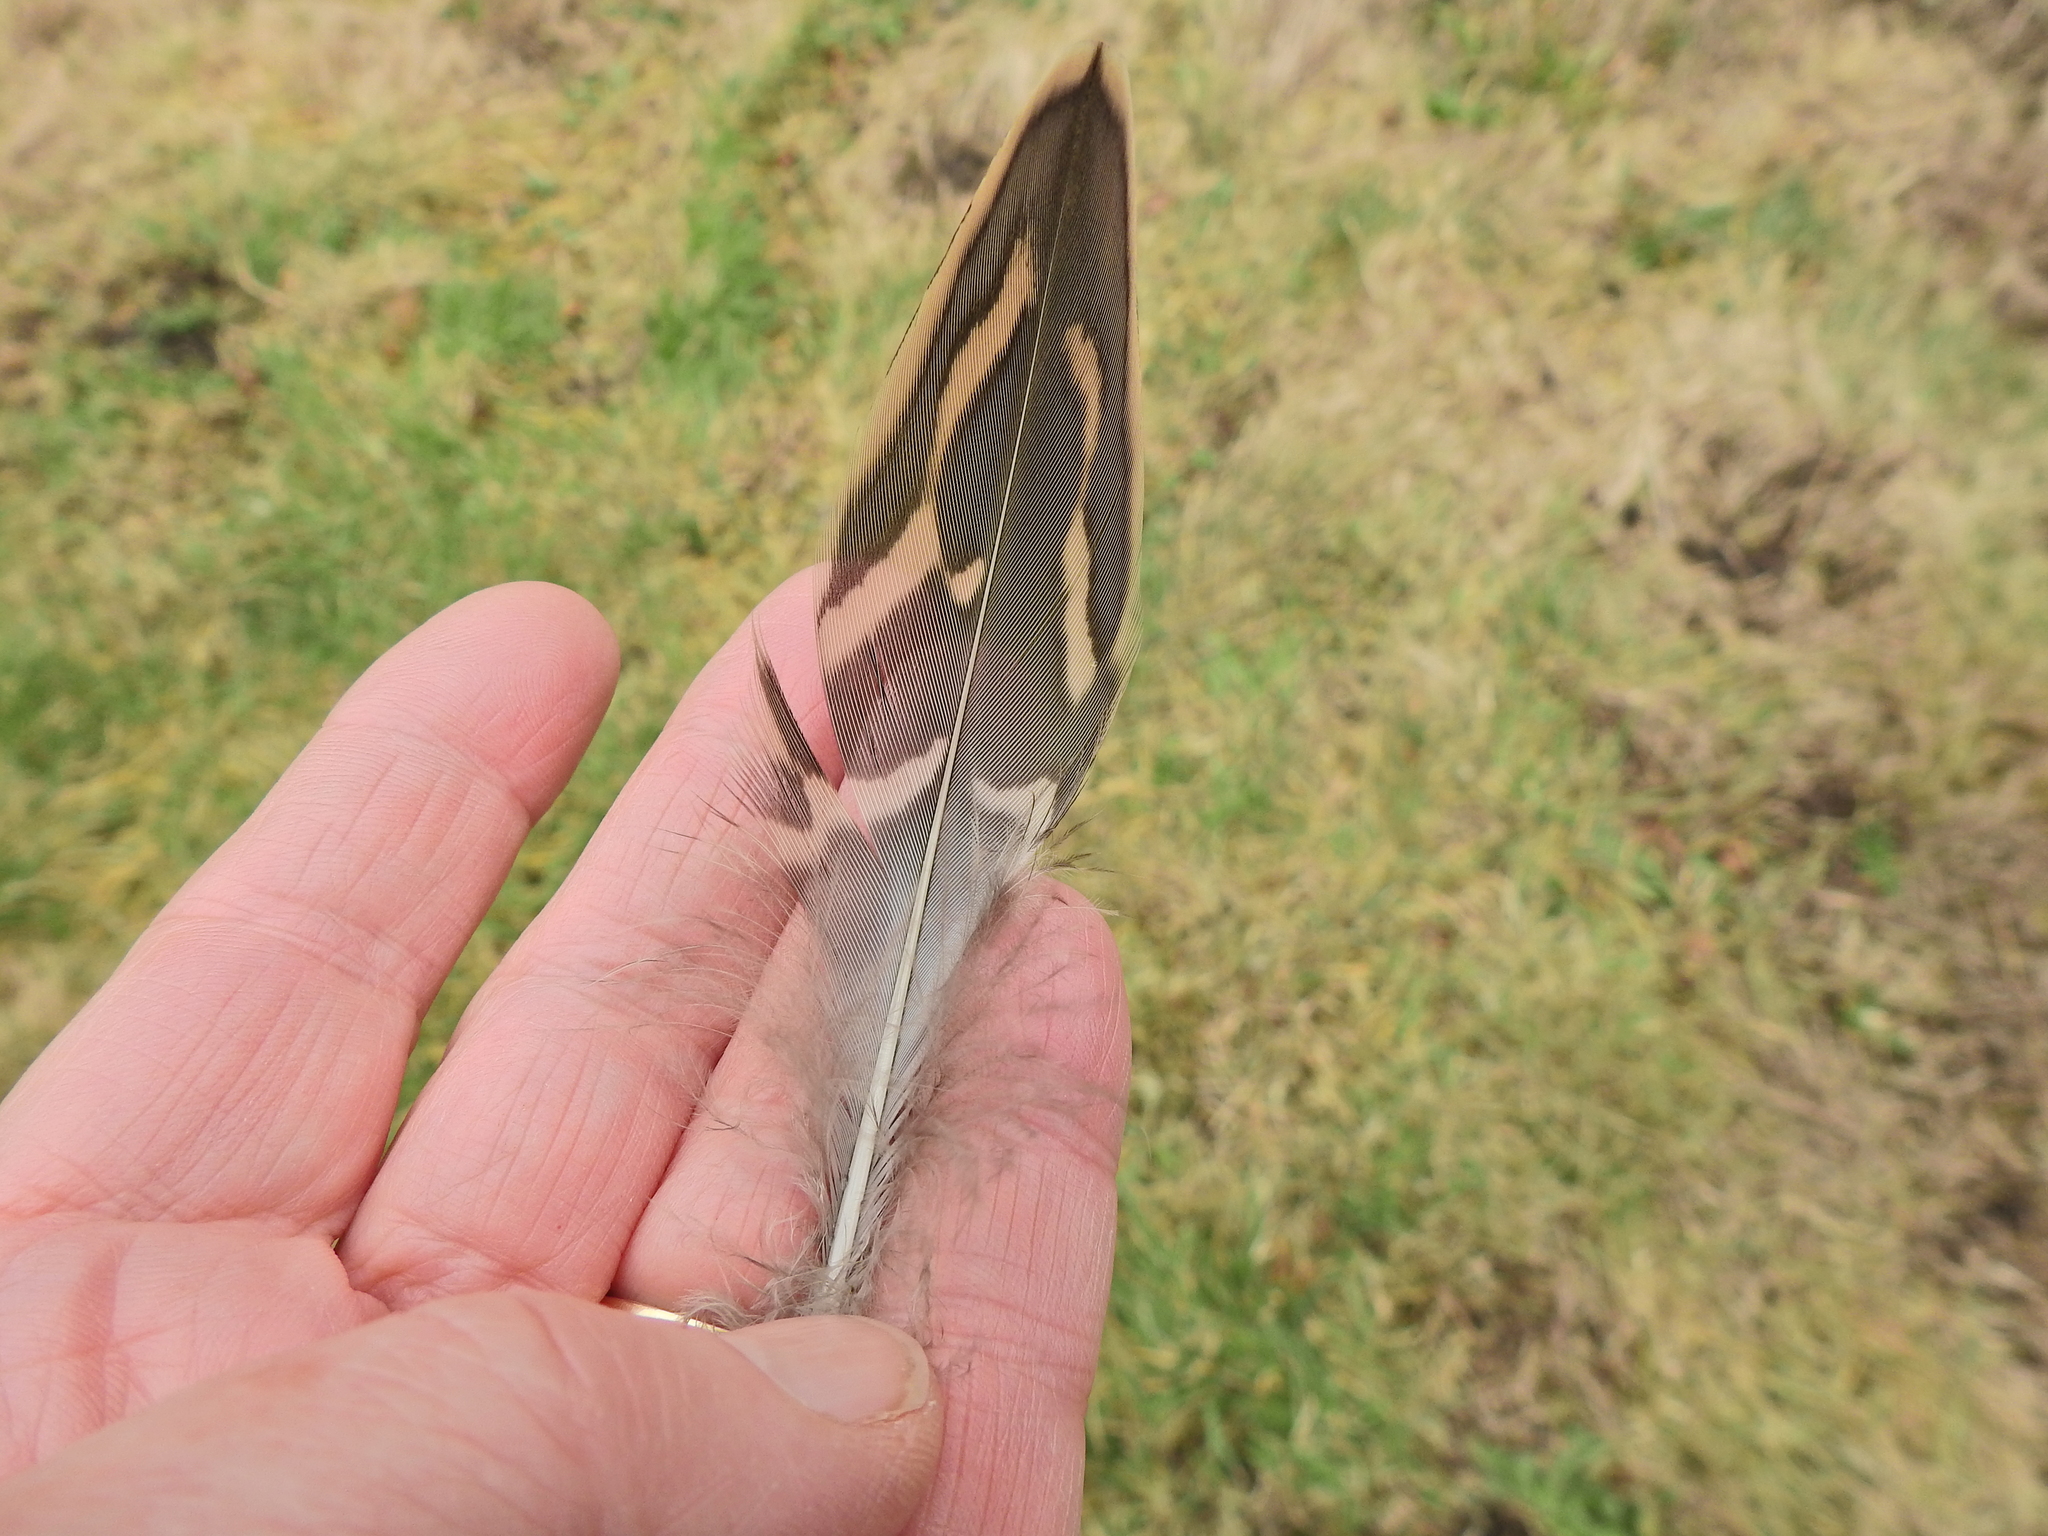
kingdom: Animalia
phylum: Chordata
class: Aves
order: Anseriformes
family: Anatidae
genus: Anas
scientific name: Anas acuta
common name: Northern pintail
